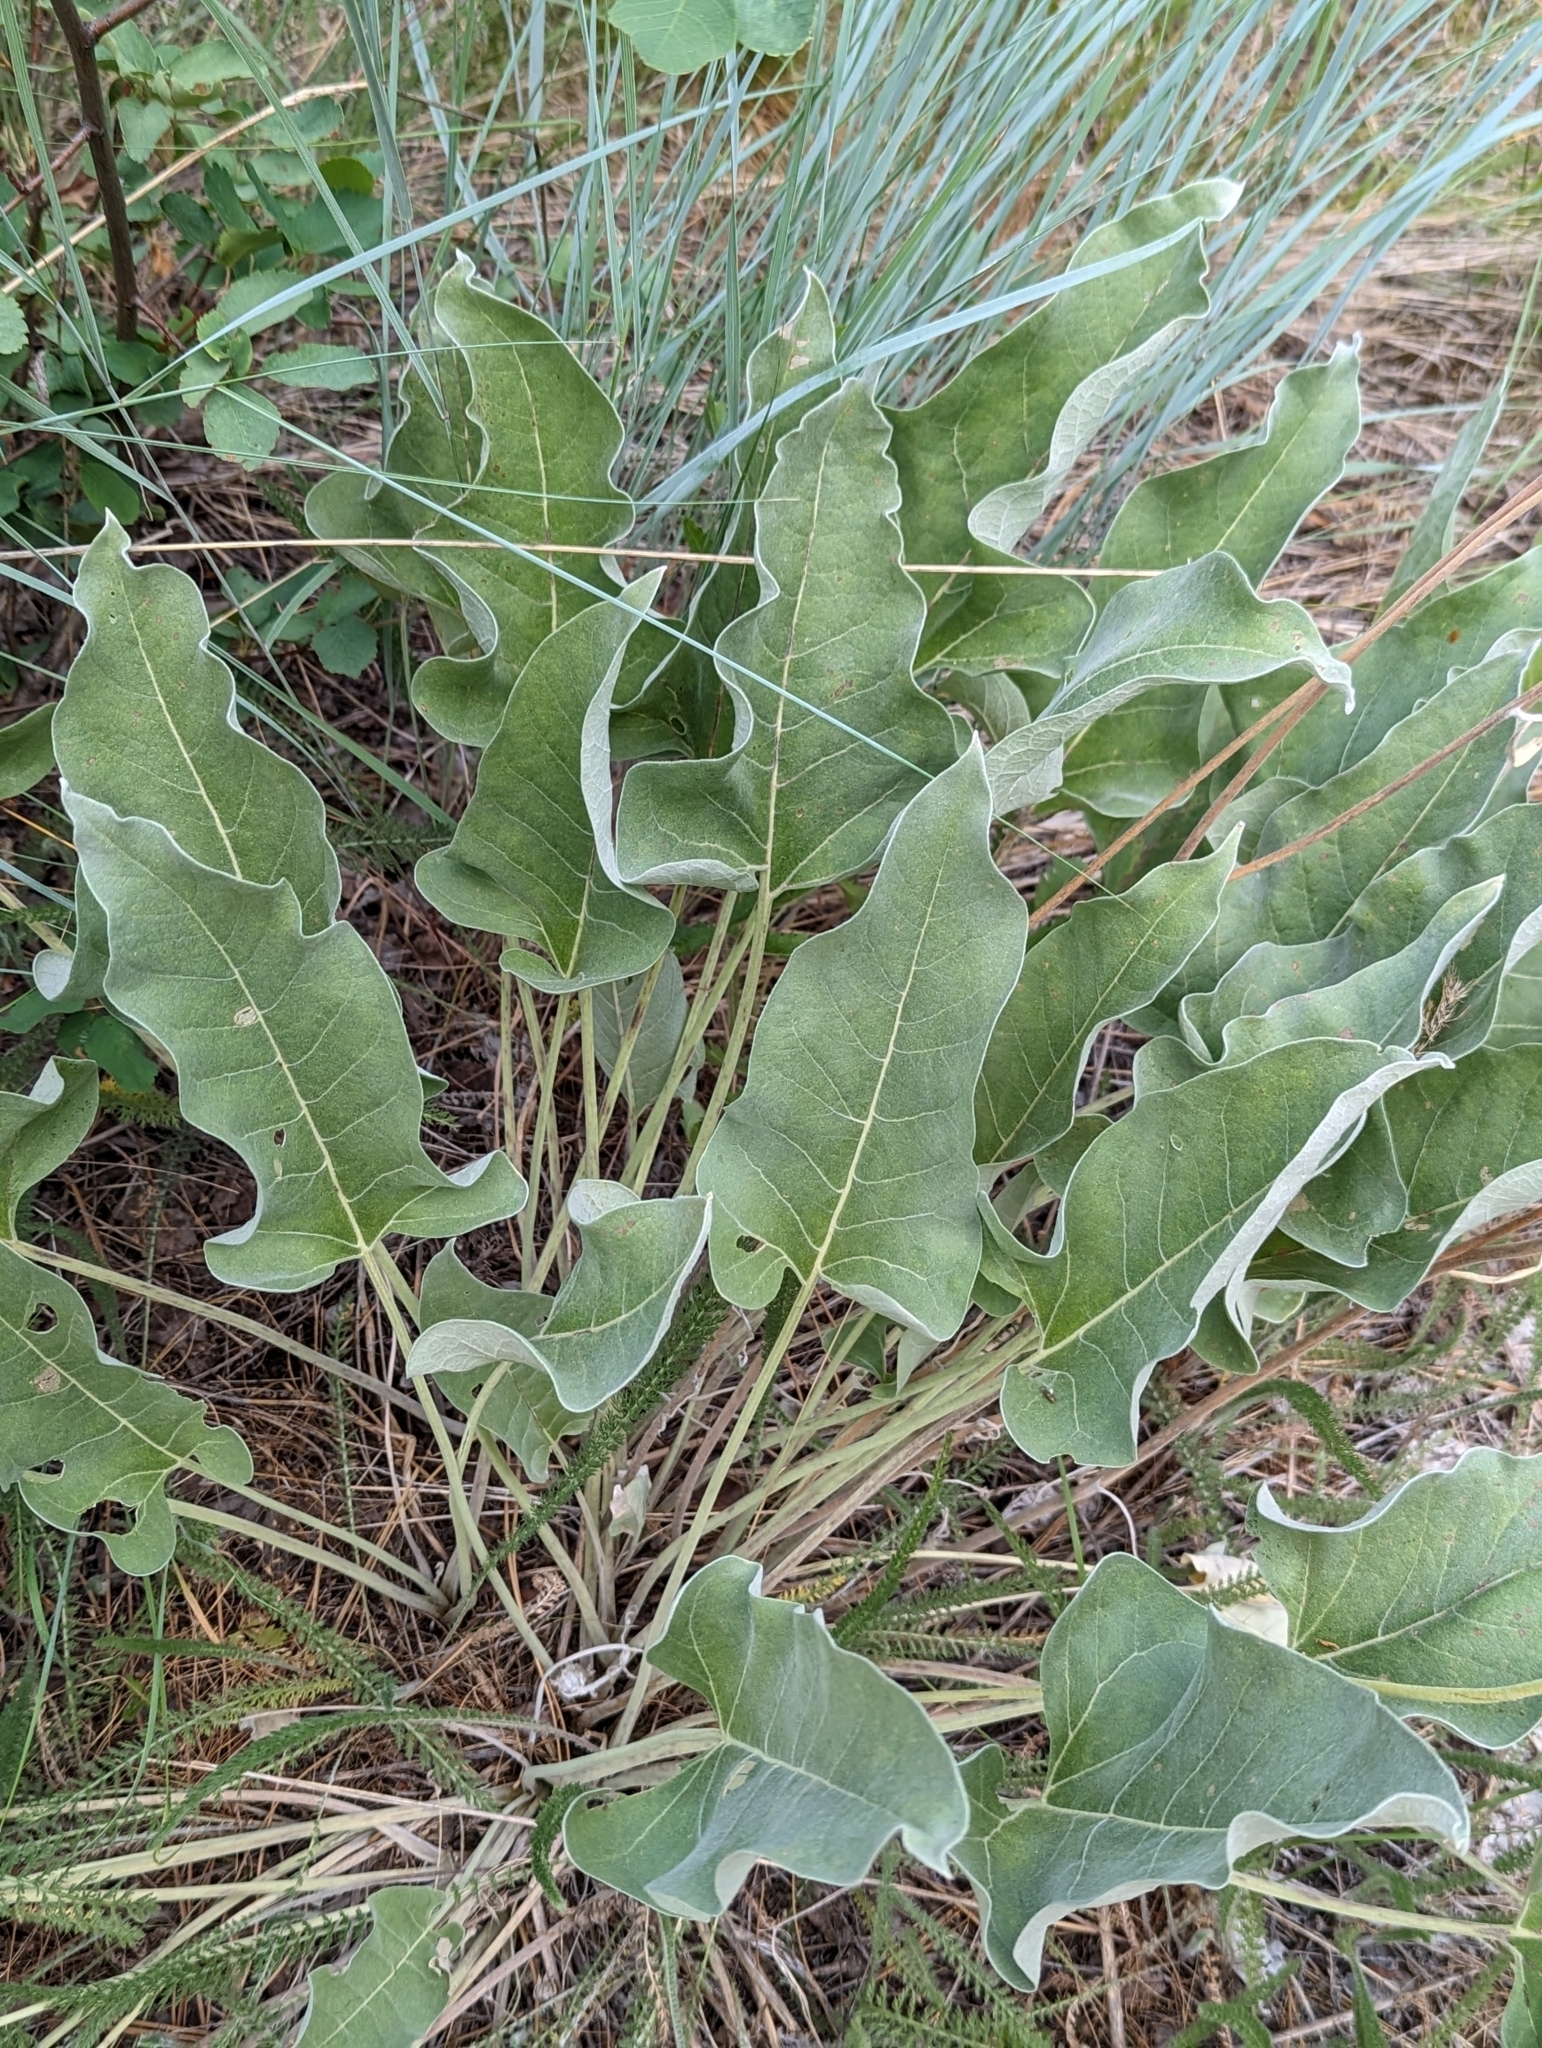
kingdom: Plantae
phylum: Tracheophyta
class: Magnoliopsida
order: Asterales
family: Asteraceae
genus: Wyethia
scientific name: Wyethia sagittata
